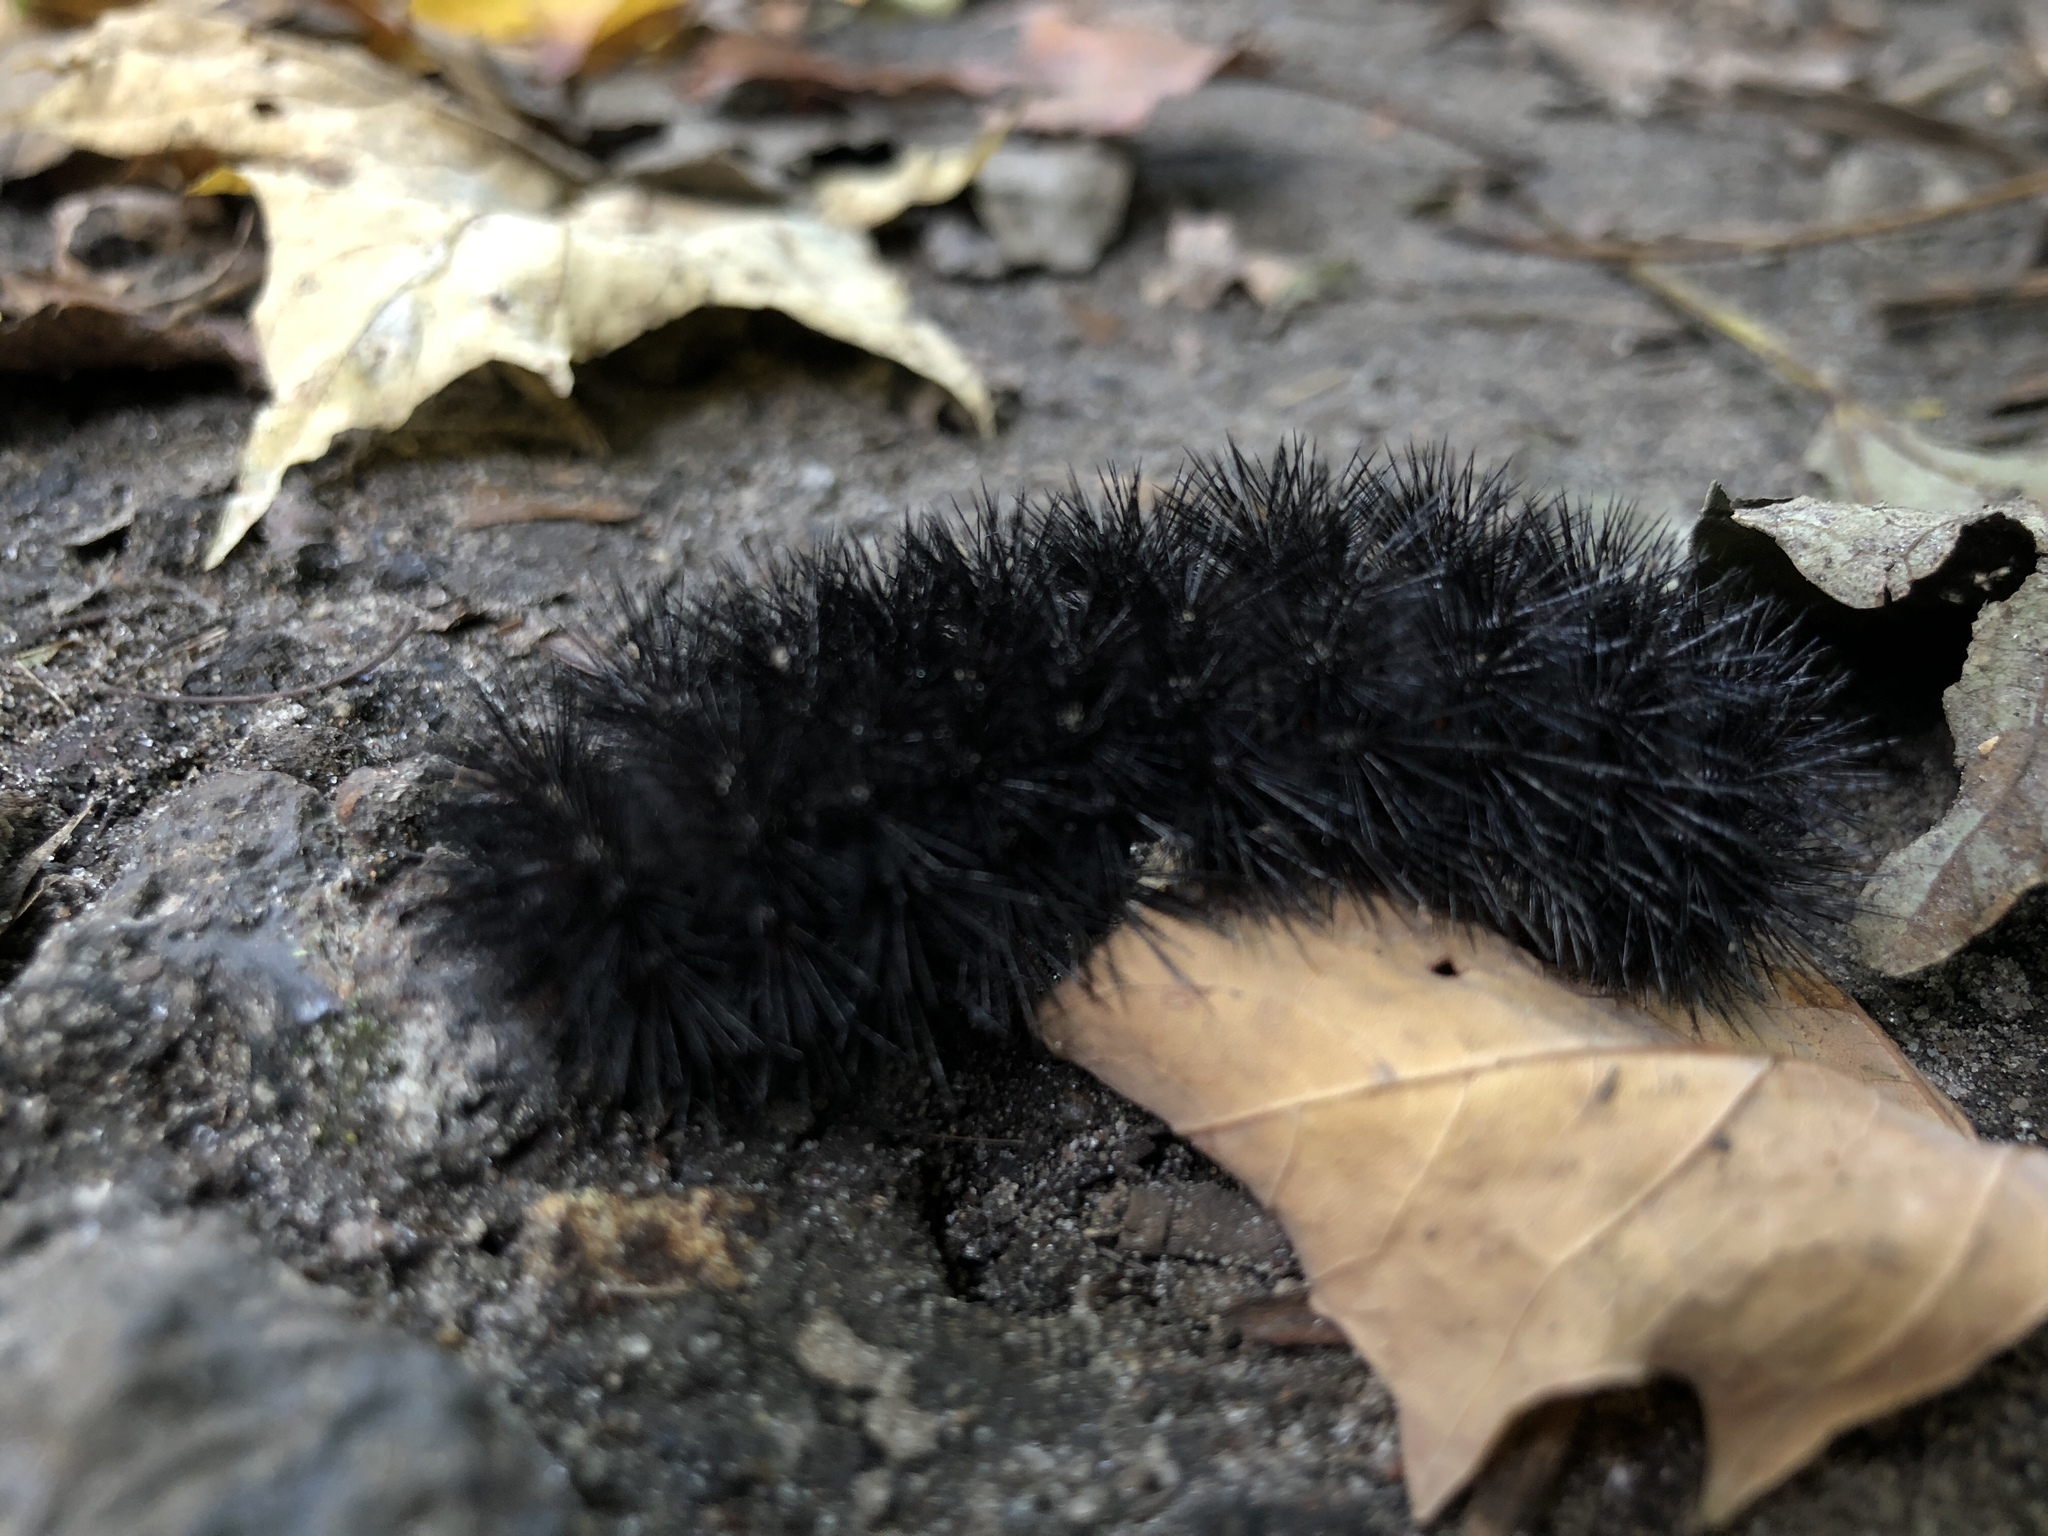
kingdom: Animalia
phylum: Arthropoda
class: Insecta
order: Lepidoptera
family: Erebidae
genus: Hypercompe
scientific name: Hypercompe scribonia
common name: Giant leopard moth
